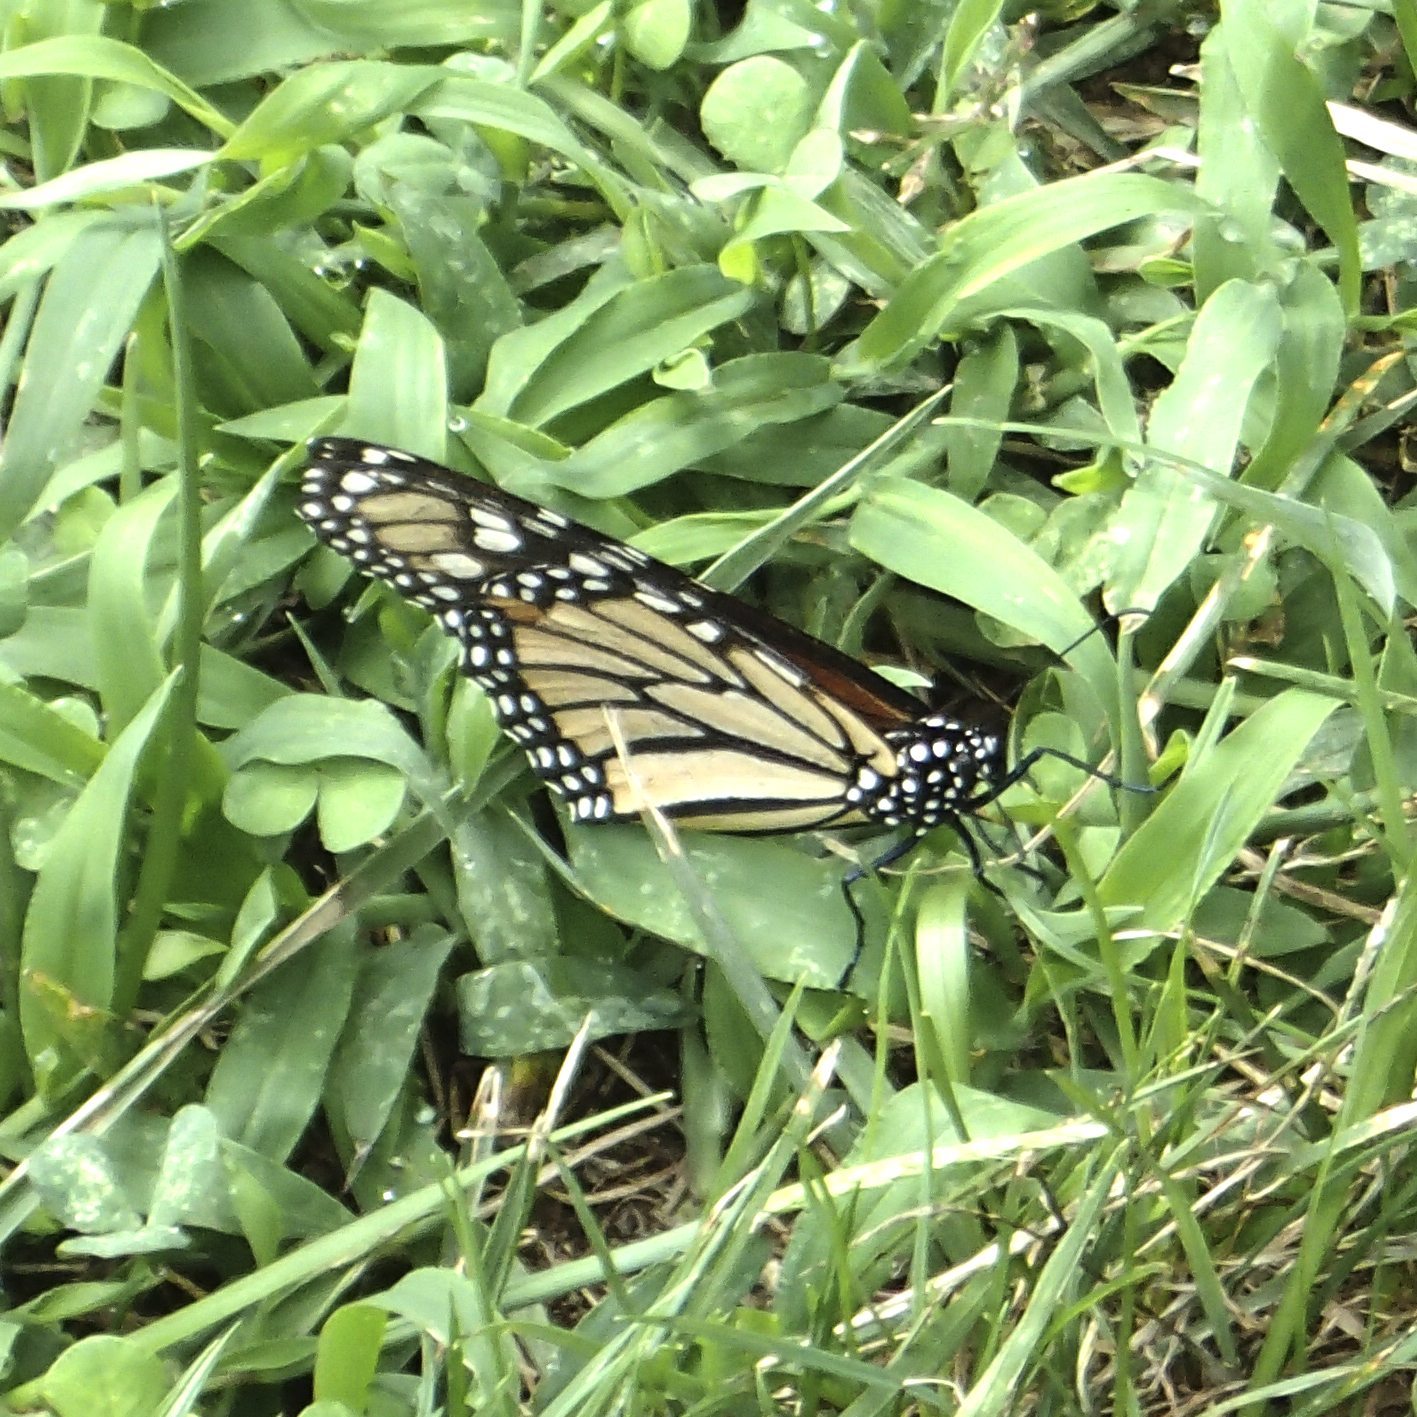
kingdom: Animalia
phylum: Arthropoda
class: Insecta
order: Lepidoptera
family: Nymphalidae
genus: Danaus
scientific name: Danaus plexippus
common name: Monarch
